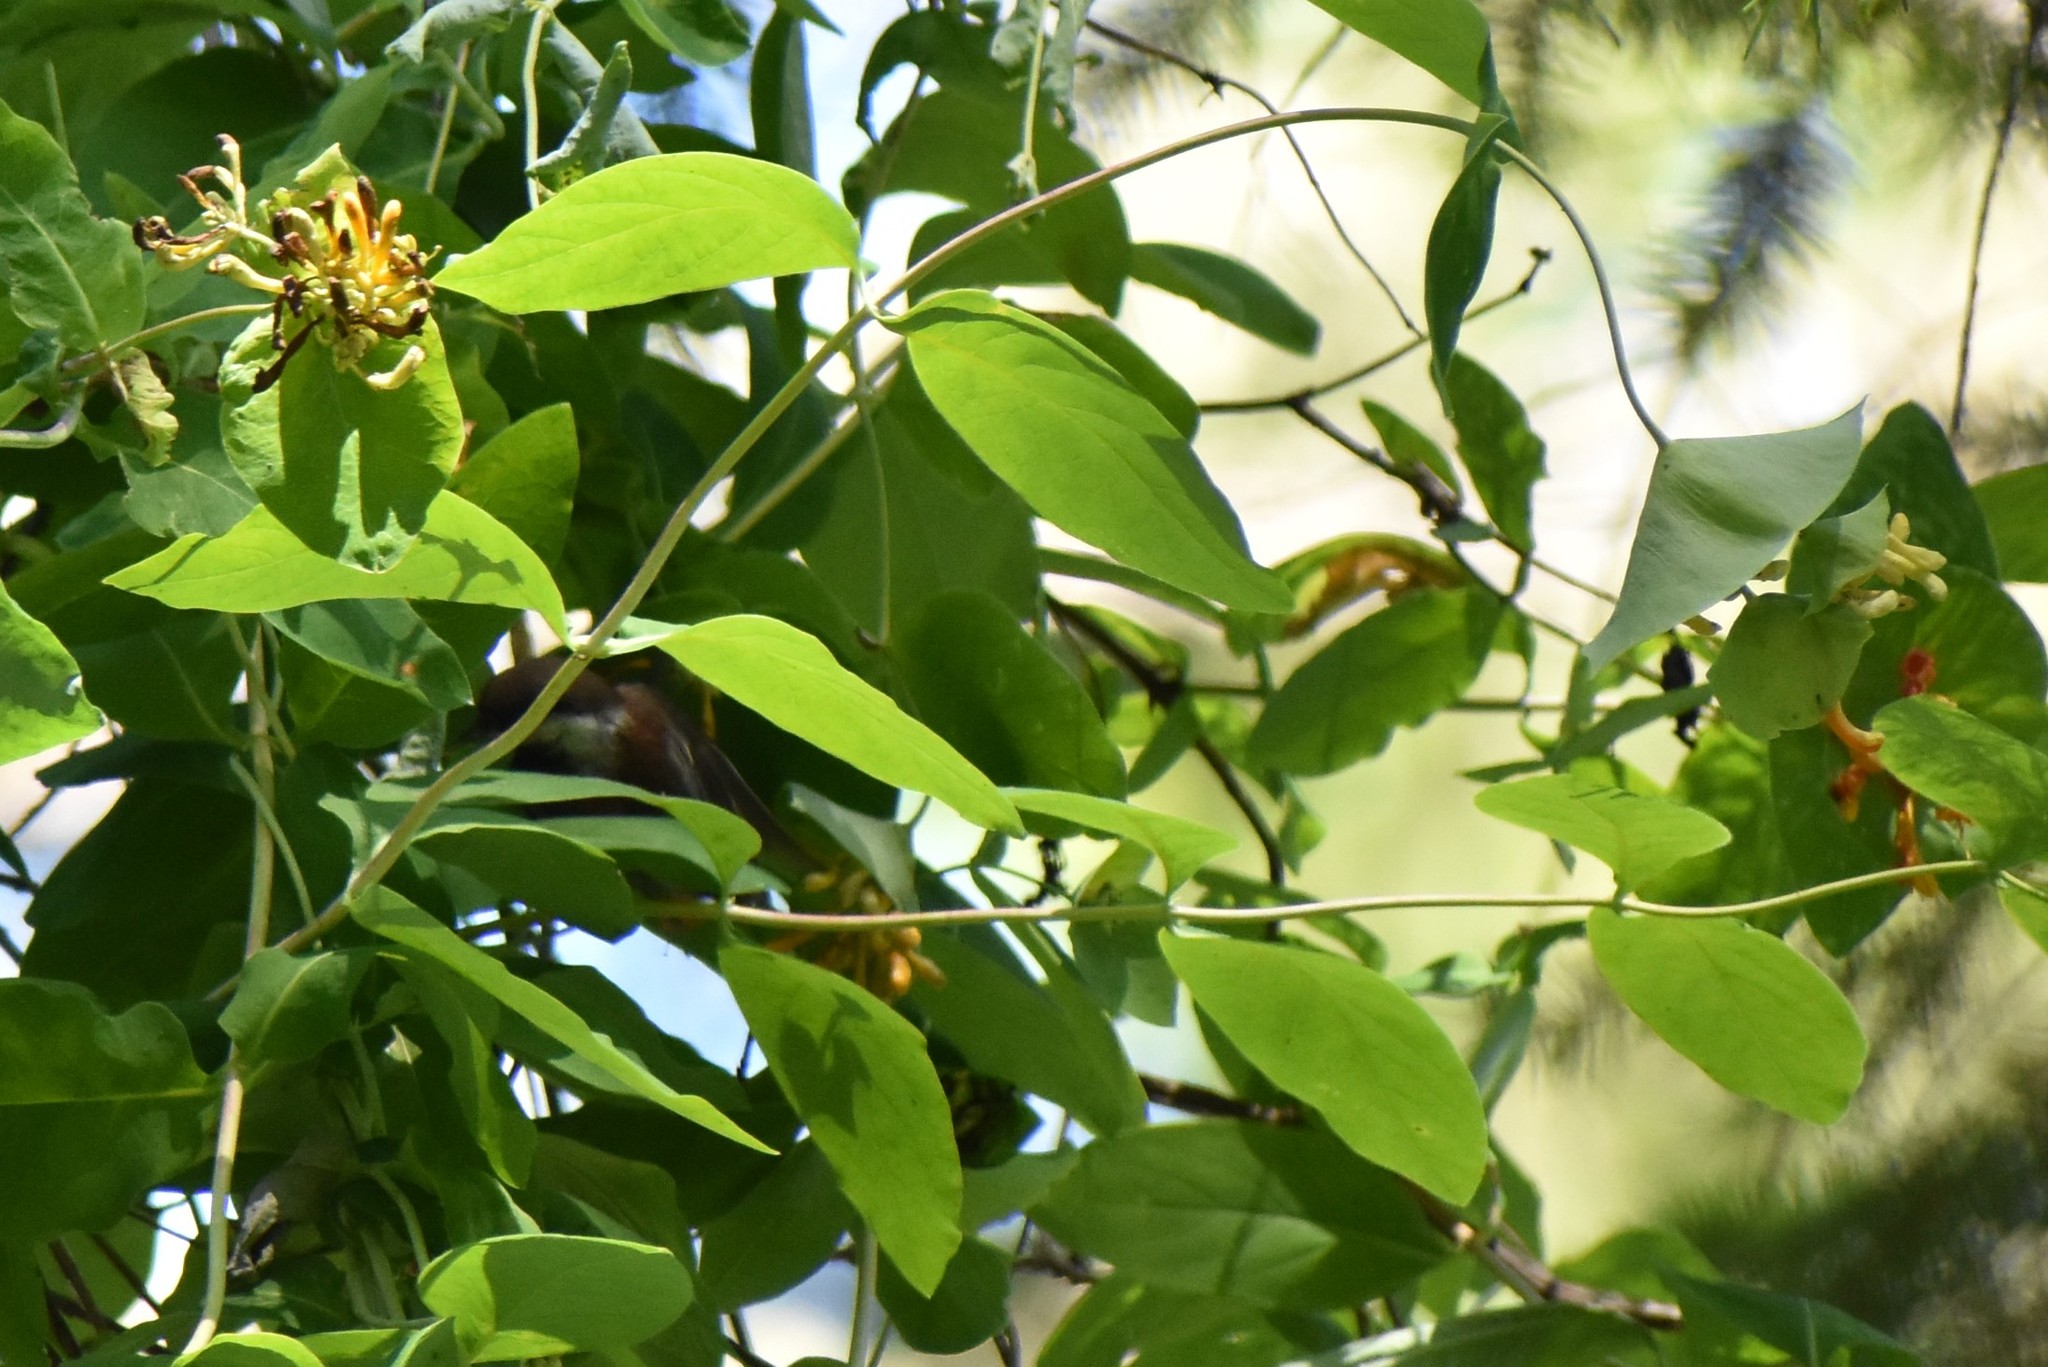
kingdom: Plantae
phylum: Tracheophyta
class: Magnoliopsida
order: Dipsacales
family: Caprifoliaceae
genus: Lonicera
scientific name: Lonicera ciliosa
